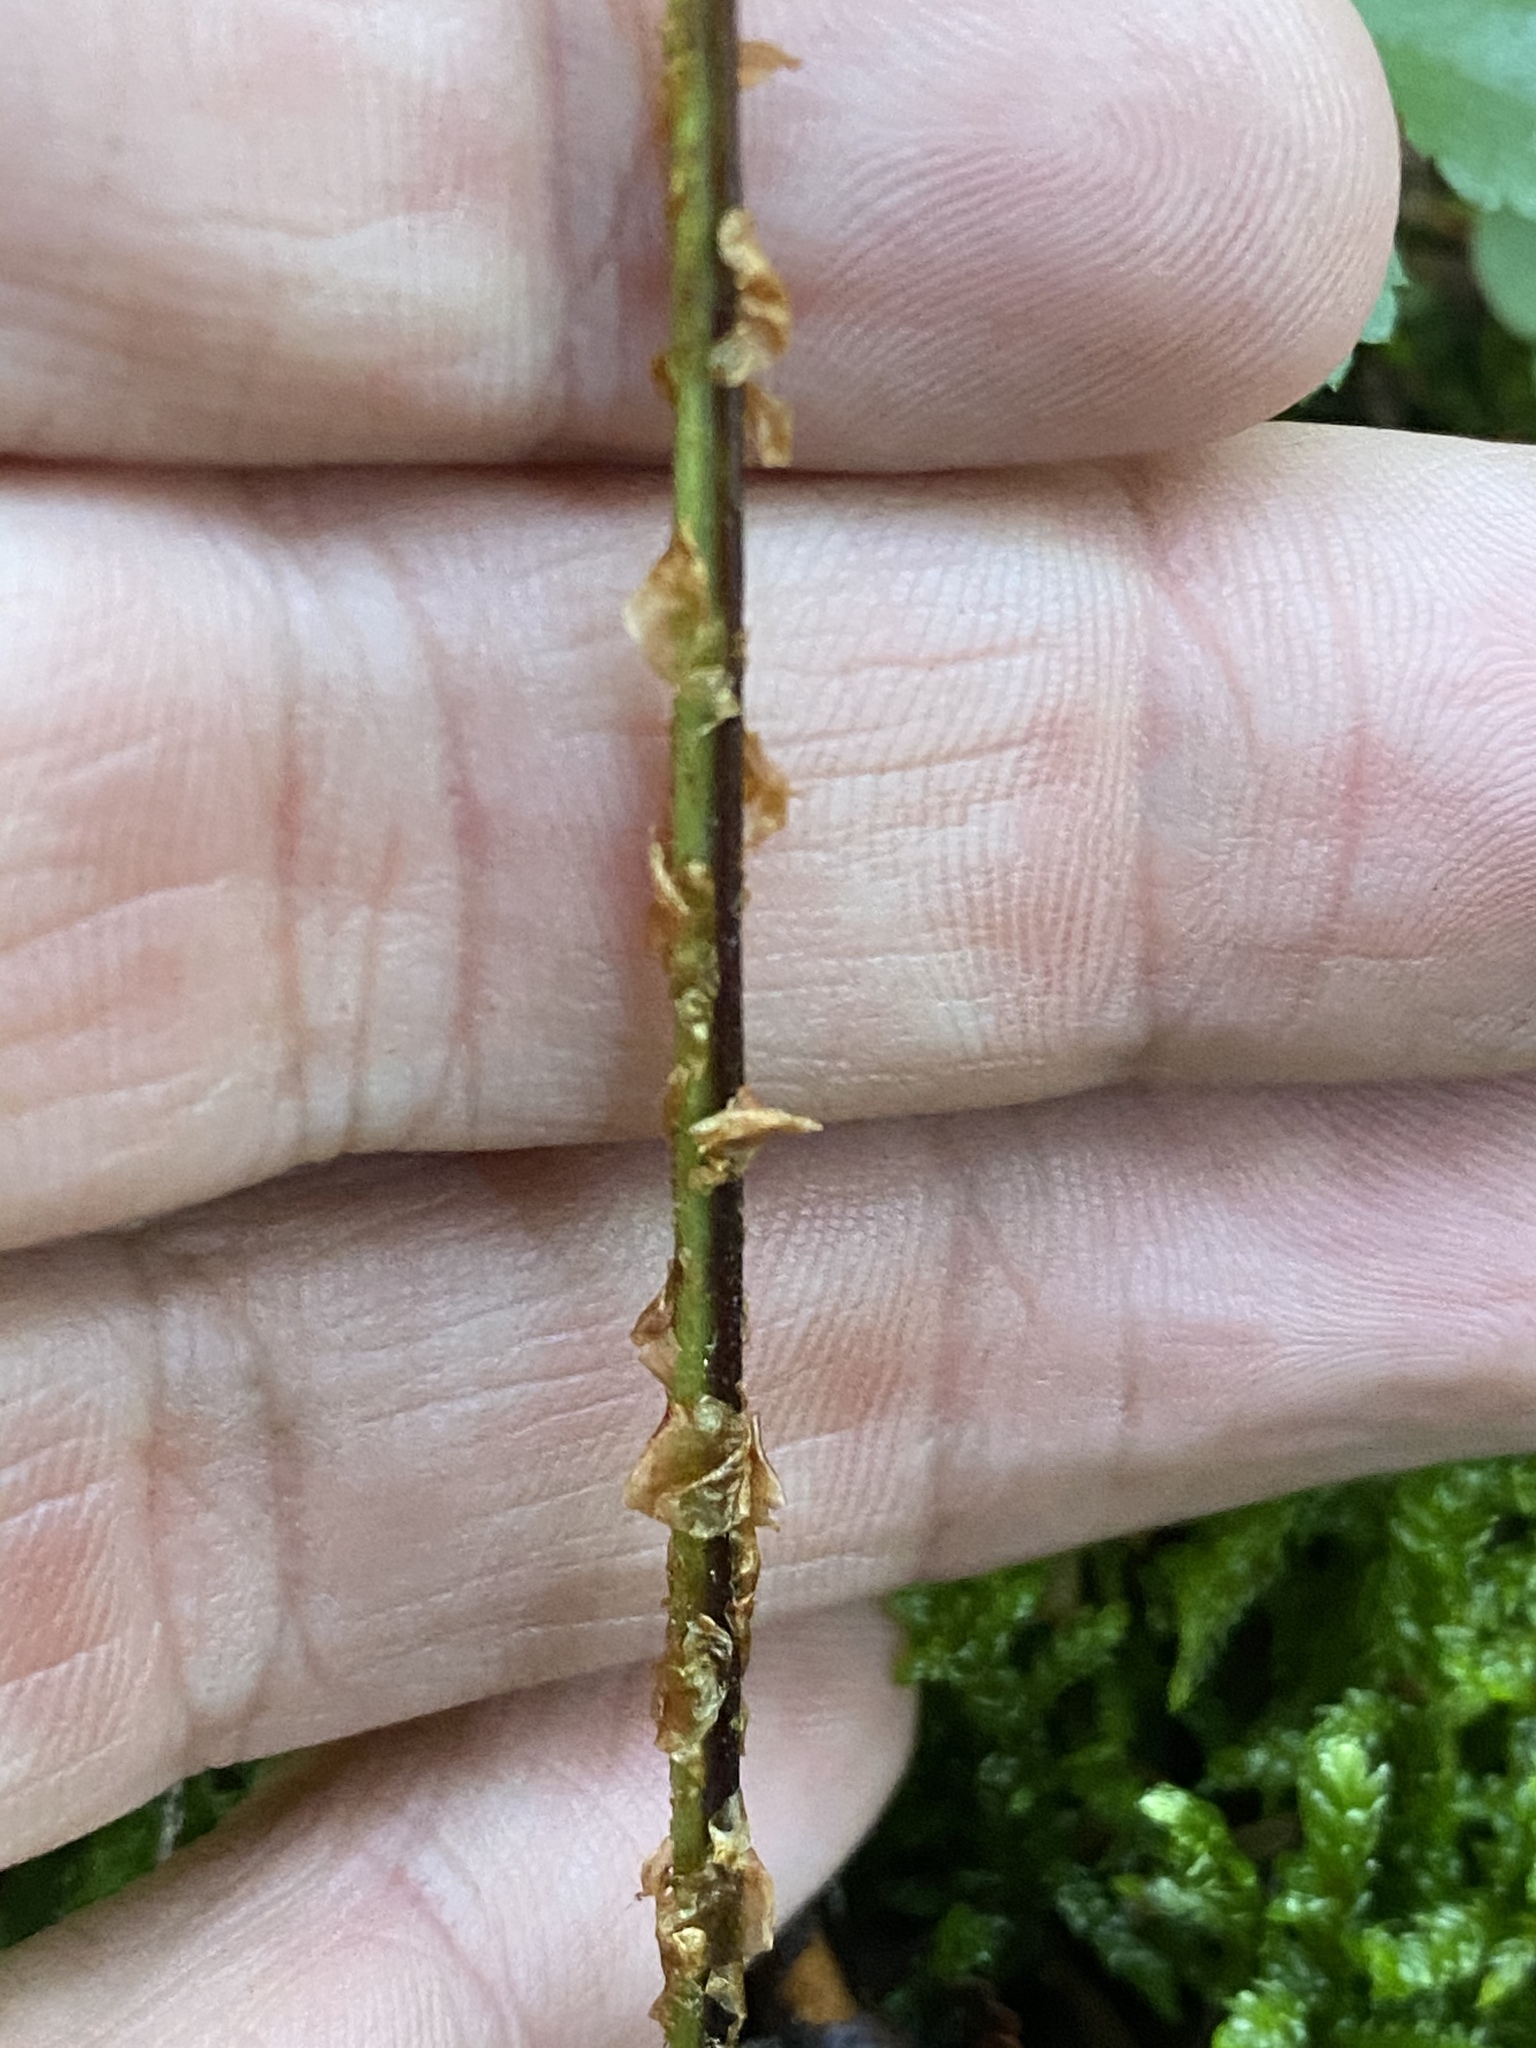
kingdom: Plantae
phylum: Tracheophyta
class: Polypodiopsida
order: Polypodiales
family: Dryopteridaceae
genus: Dryopteris
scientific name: Dryopteris intermedia
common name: Evergreen wood fern
